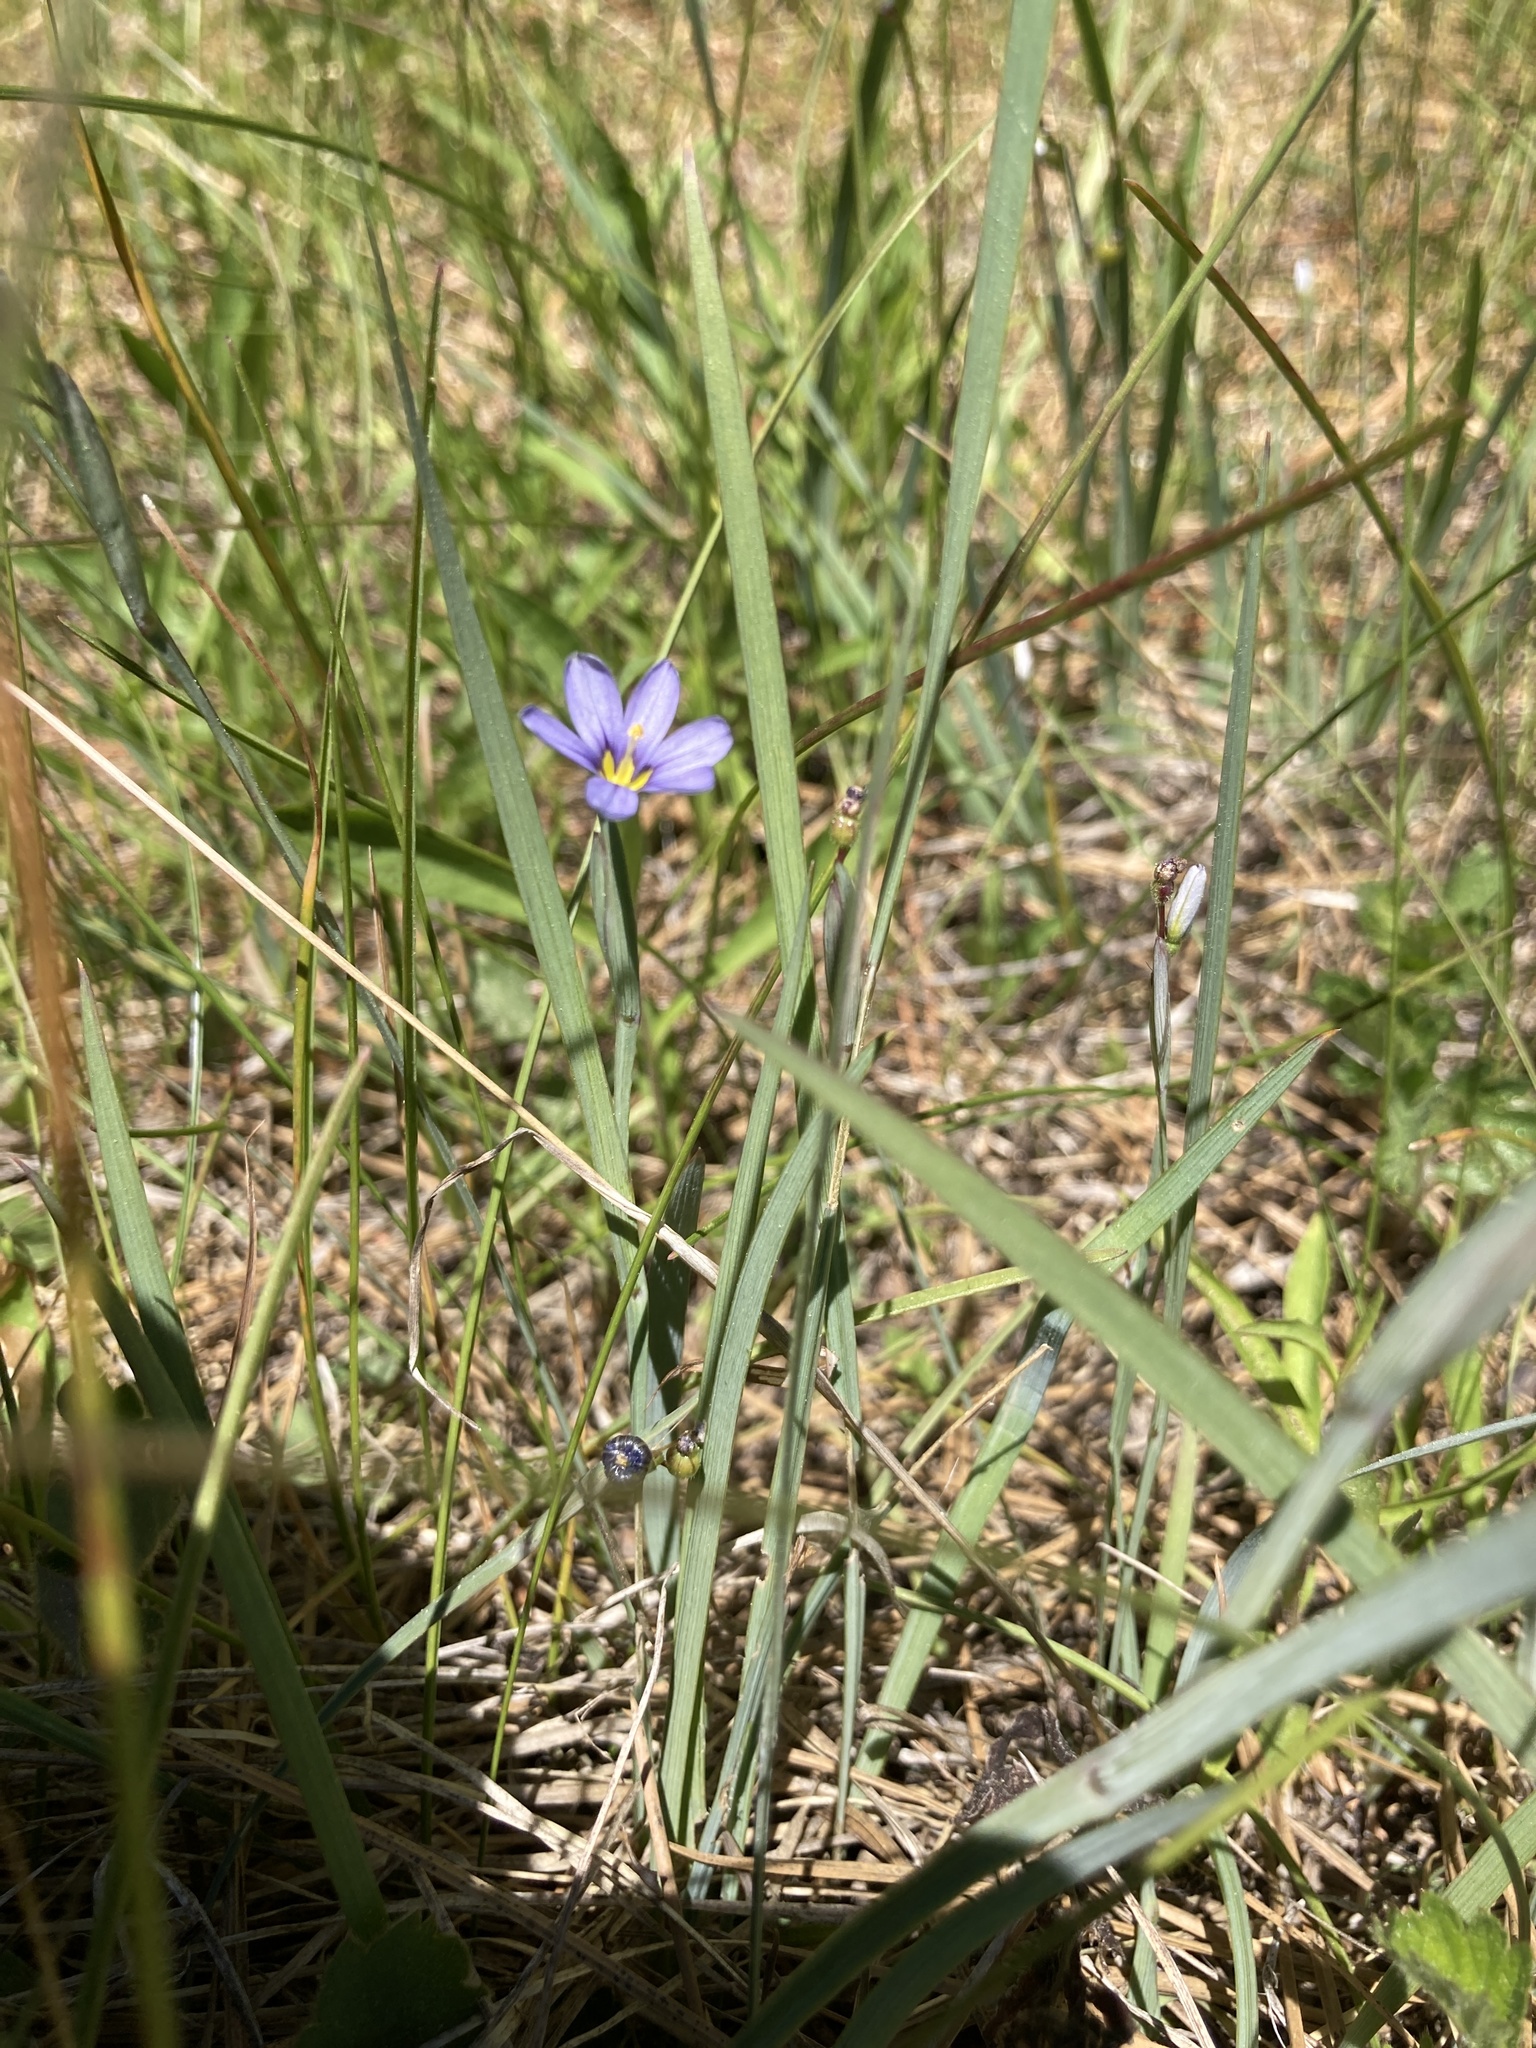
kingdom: Plantae
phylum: Tracheophyta
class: Liliopsida
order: Asparagales
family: Iridaceae
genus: Sisyrinchium
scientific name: Sisyrinchium bellum
